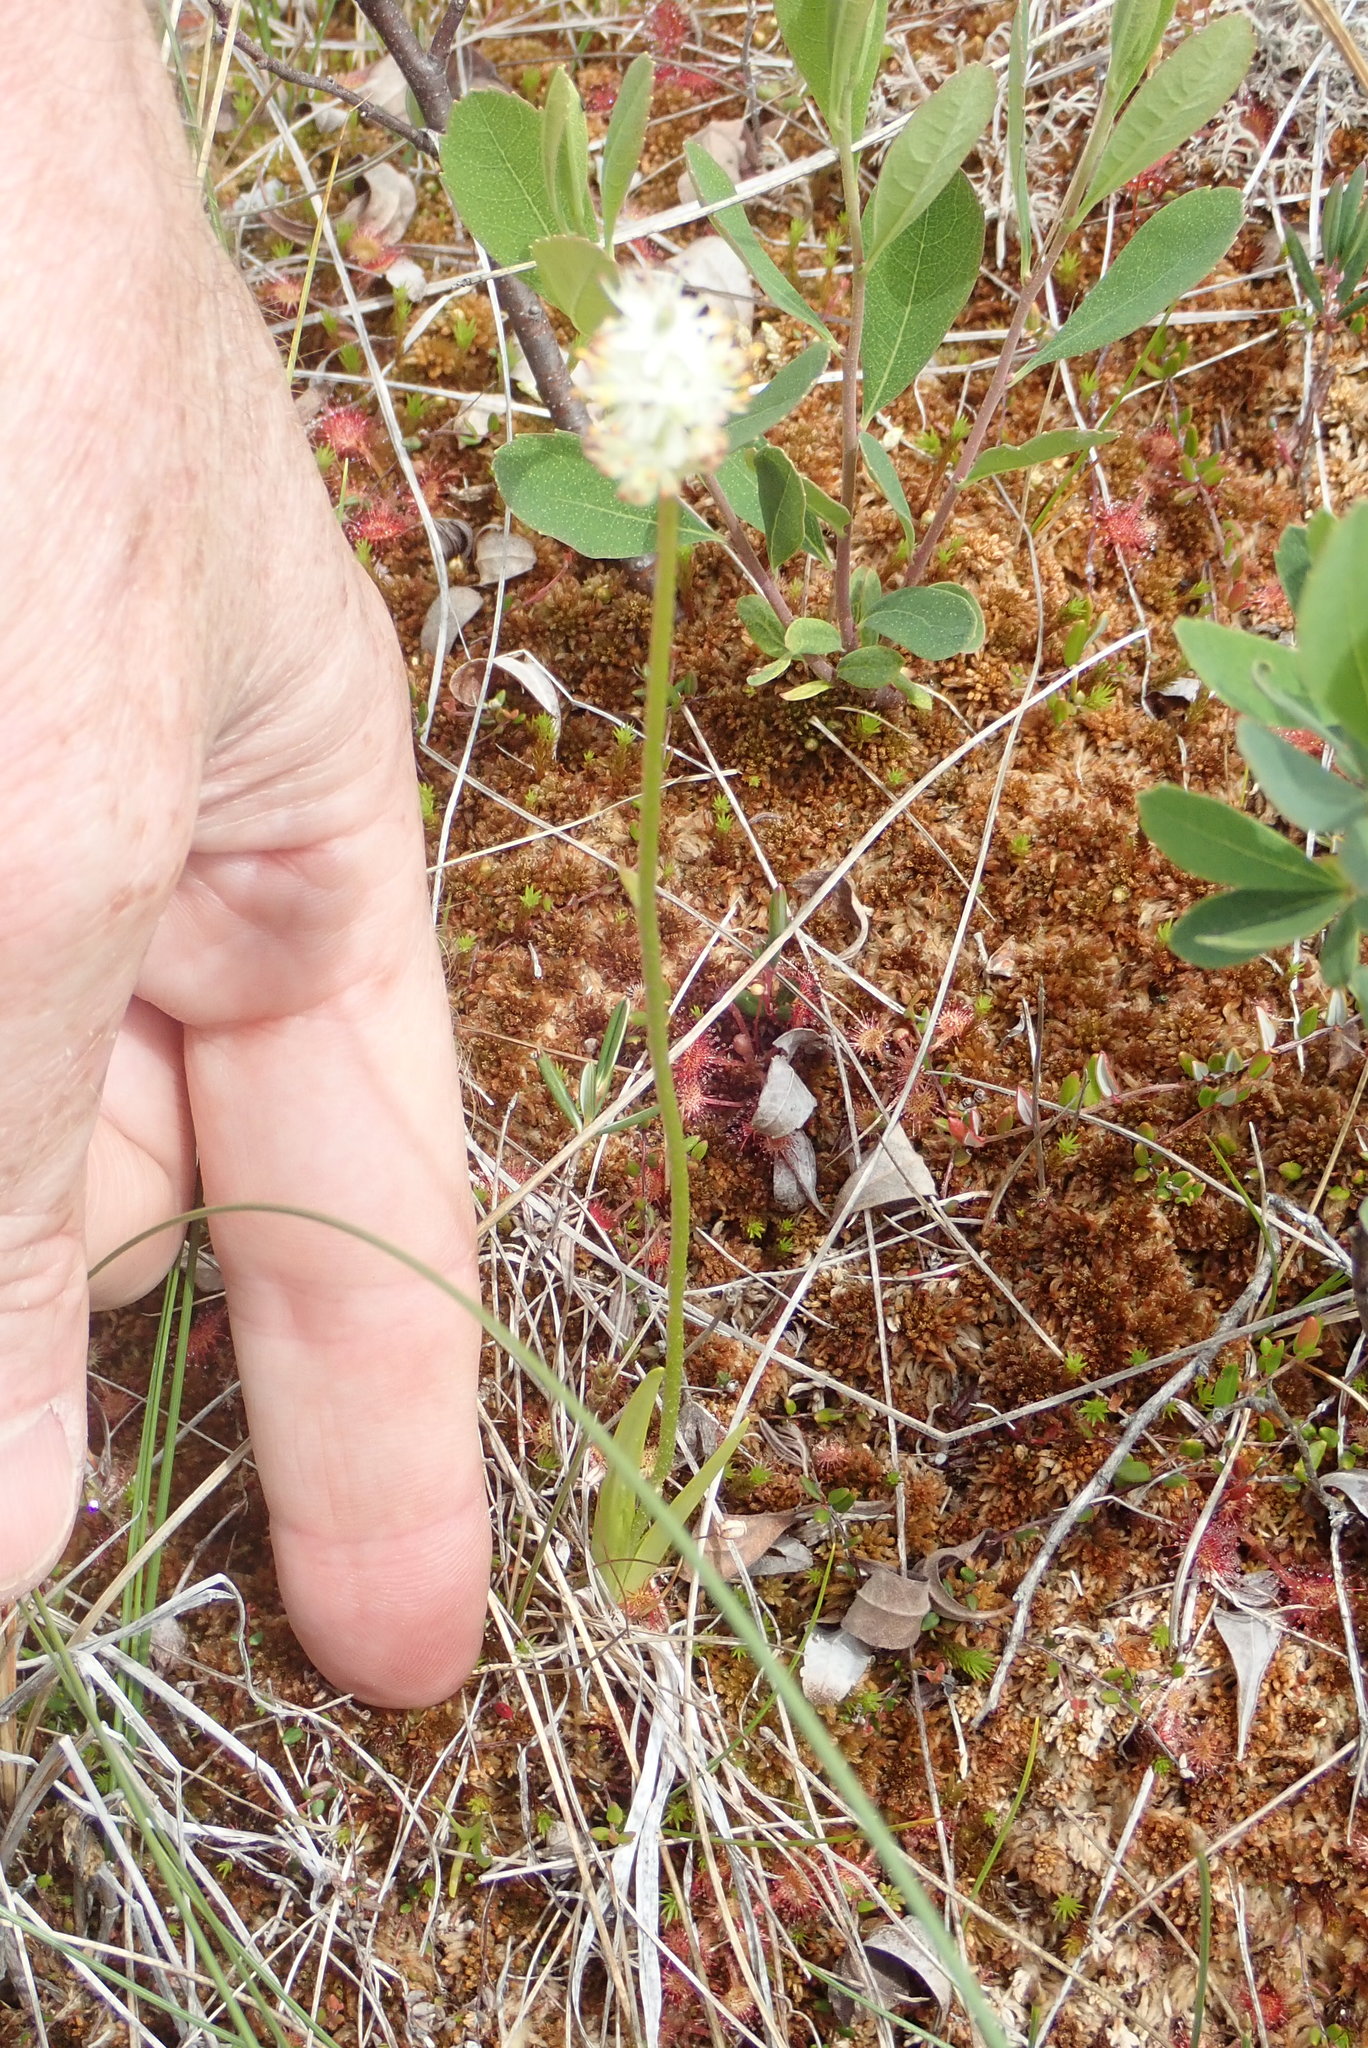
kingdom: Plantae
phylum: Tracheophyta
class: Liliopsida
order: Alismatales
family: Tofieldiaceae
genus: Triantha
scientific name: Triantha glutinosa
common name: Glutinous tofieldia
